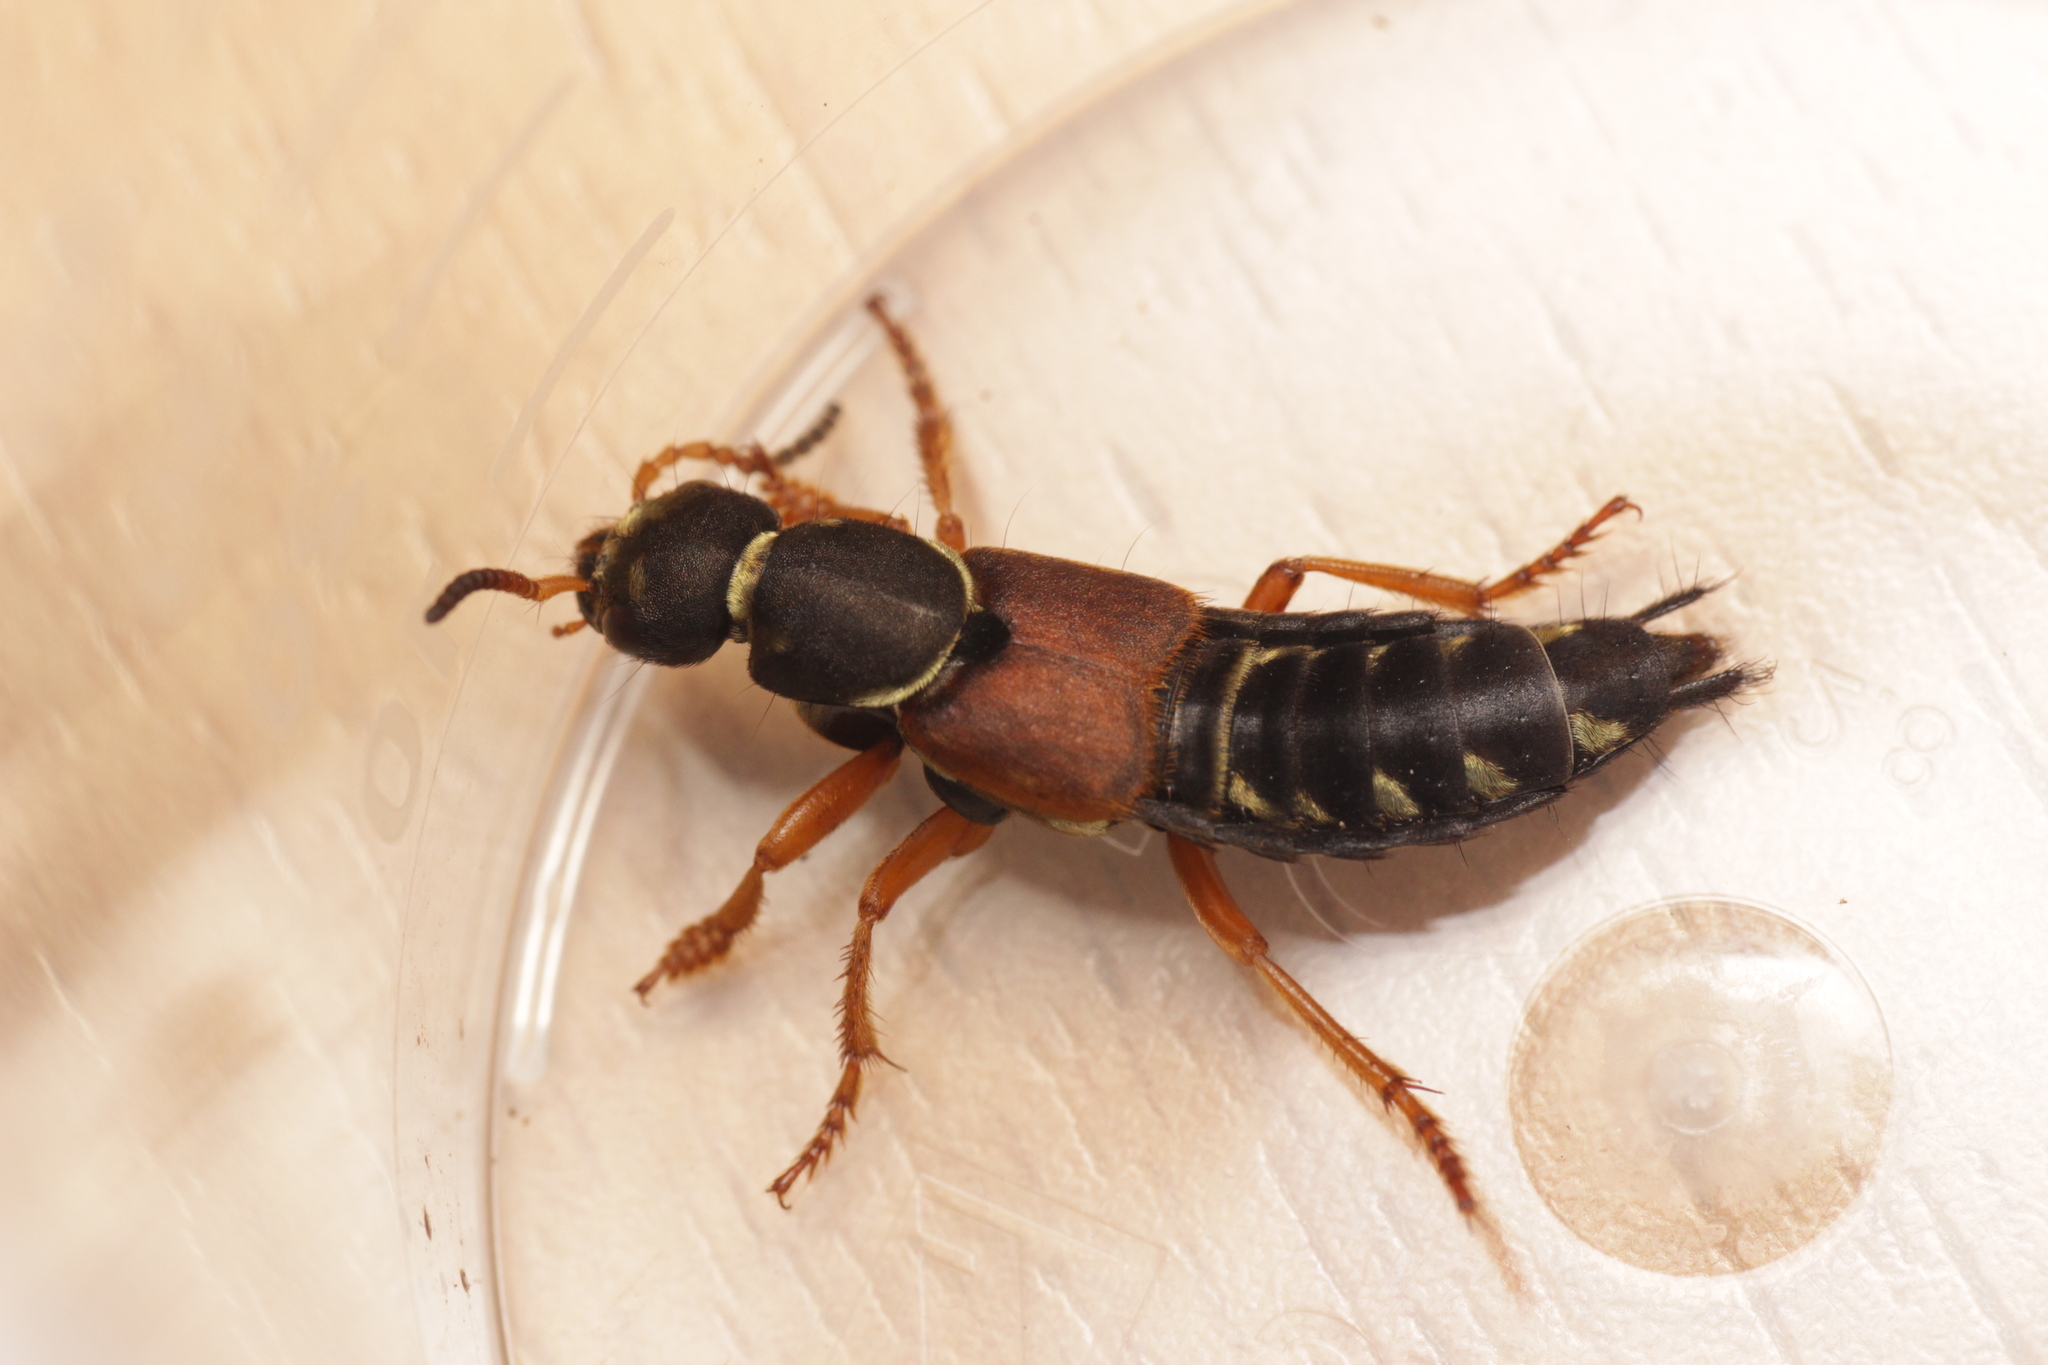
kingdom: Animalia
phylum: Arthropoda
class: Insecta
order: Coleoptera
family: Staphylinidae
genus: Staphylinus
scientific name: Staphylinus dimidiaticornis
